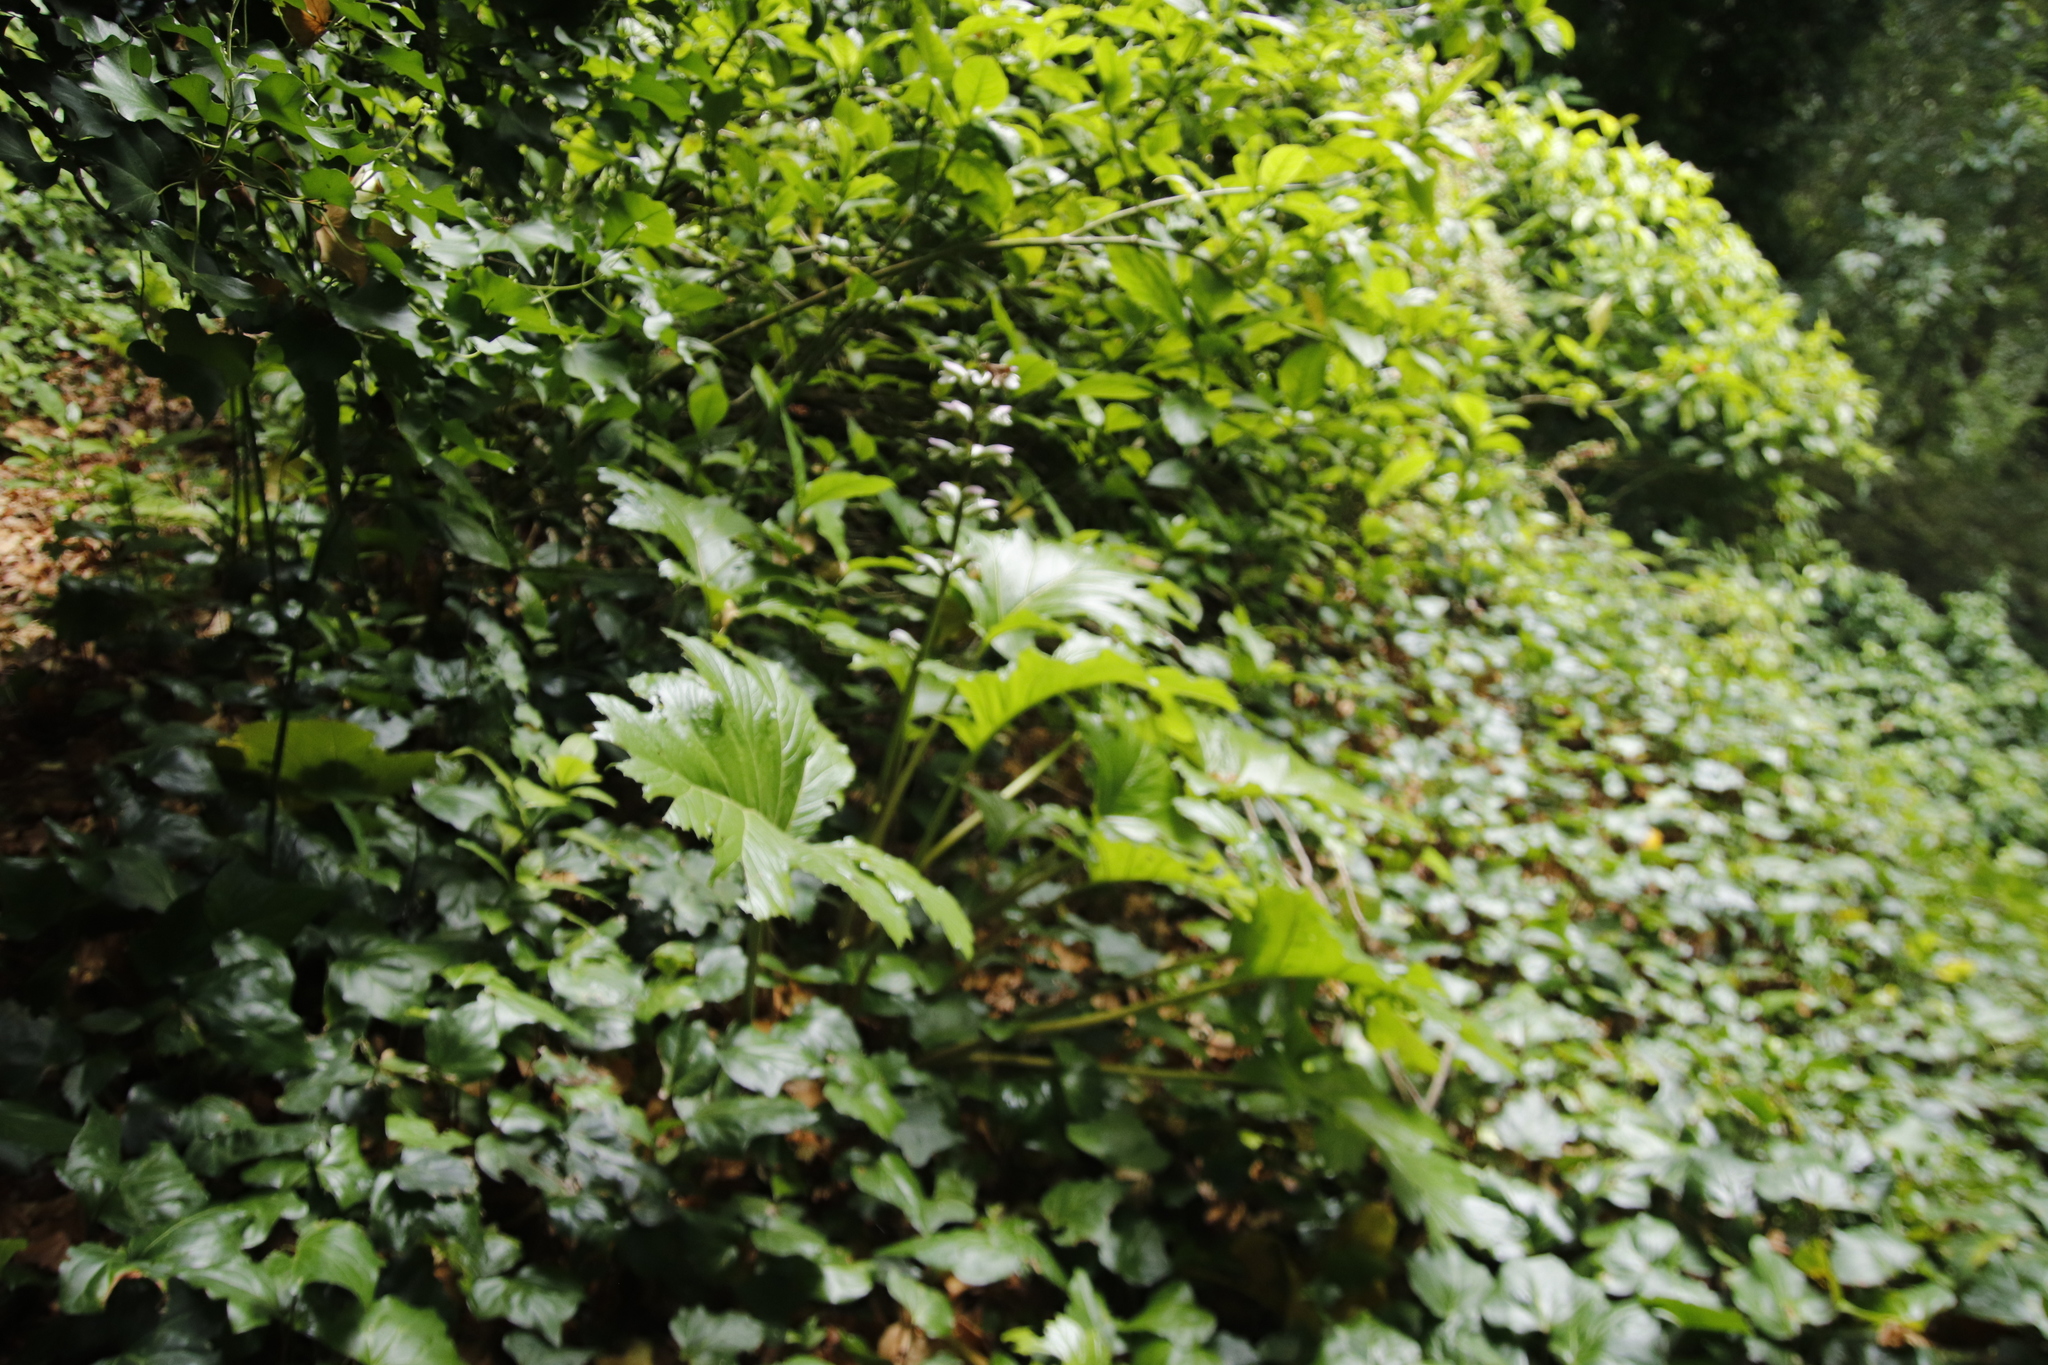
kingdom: Plantae
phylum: Tracheophyta
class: Magnoliopsida
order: Lamiales
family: Acanthaceae
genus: Acanthus
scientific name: Acanthus mollis
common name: Bear's-breech
